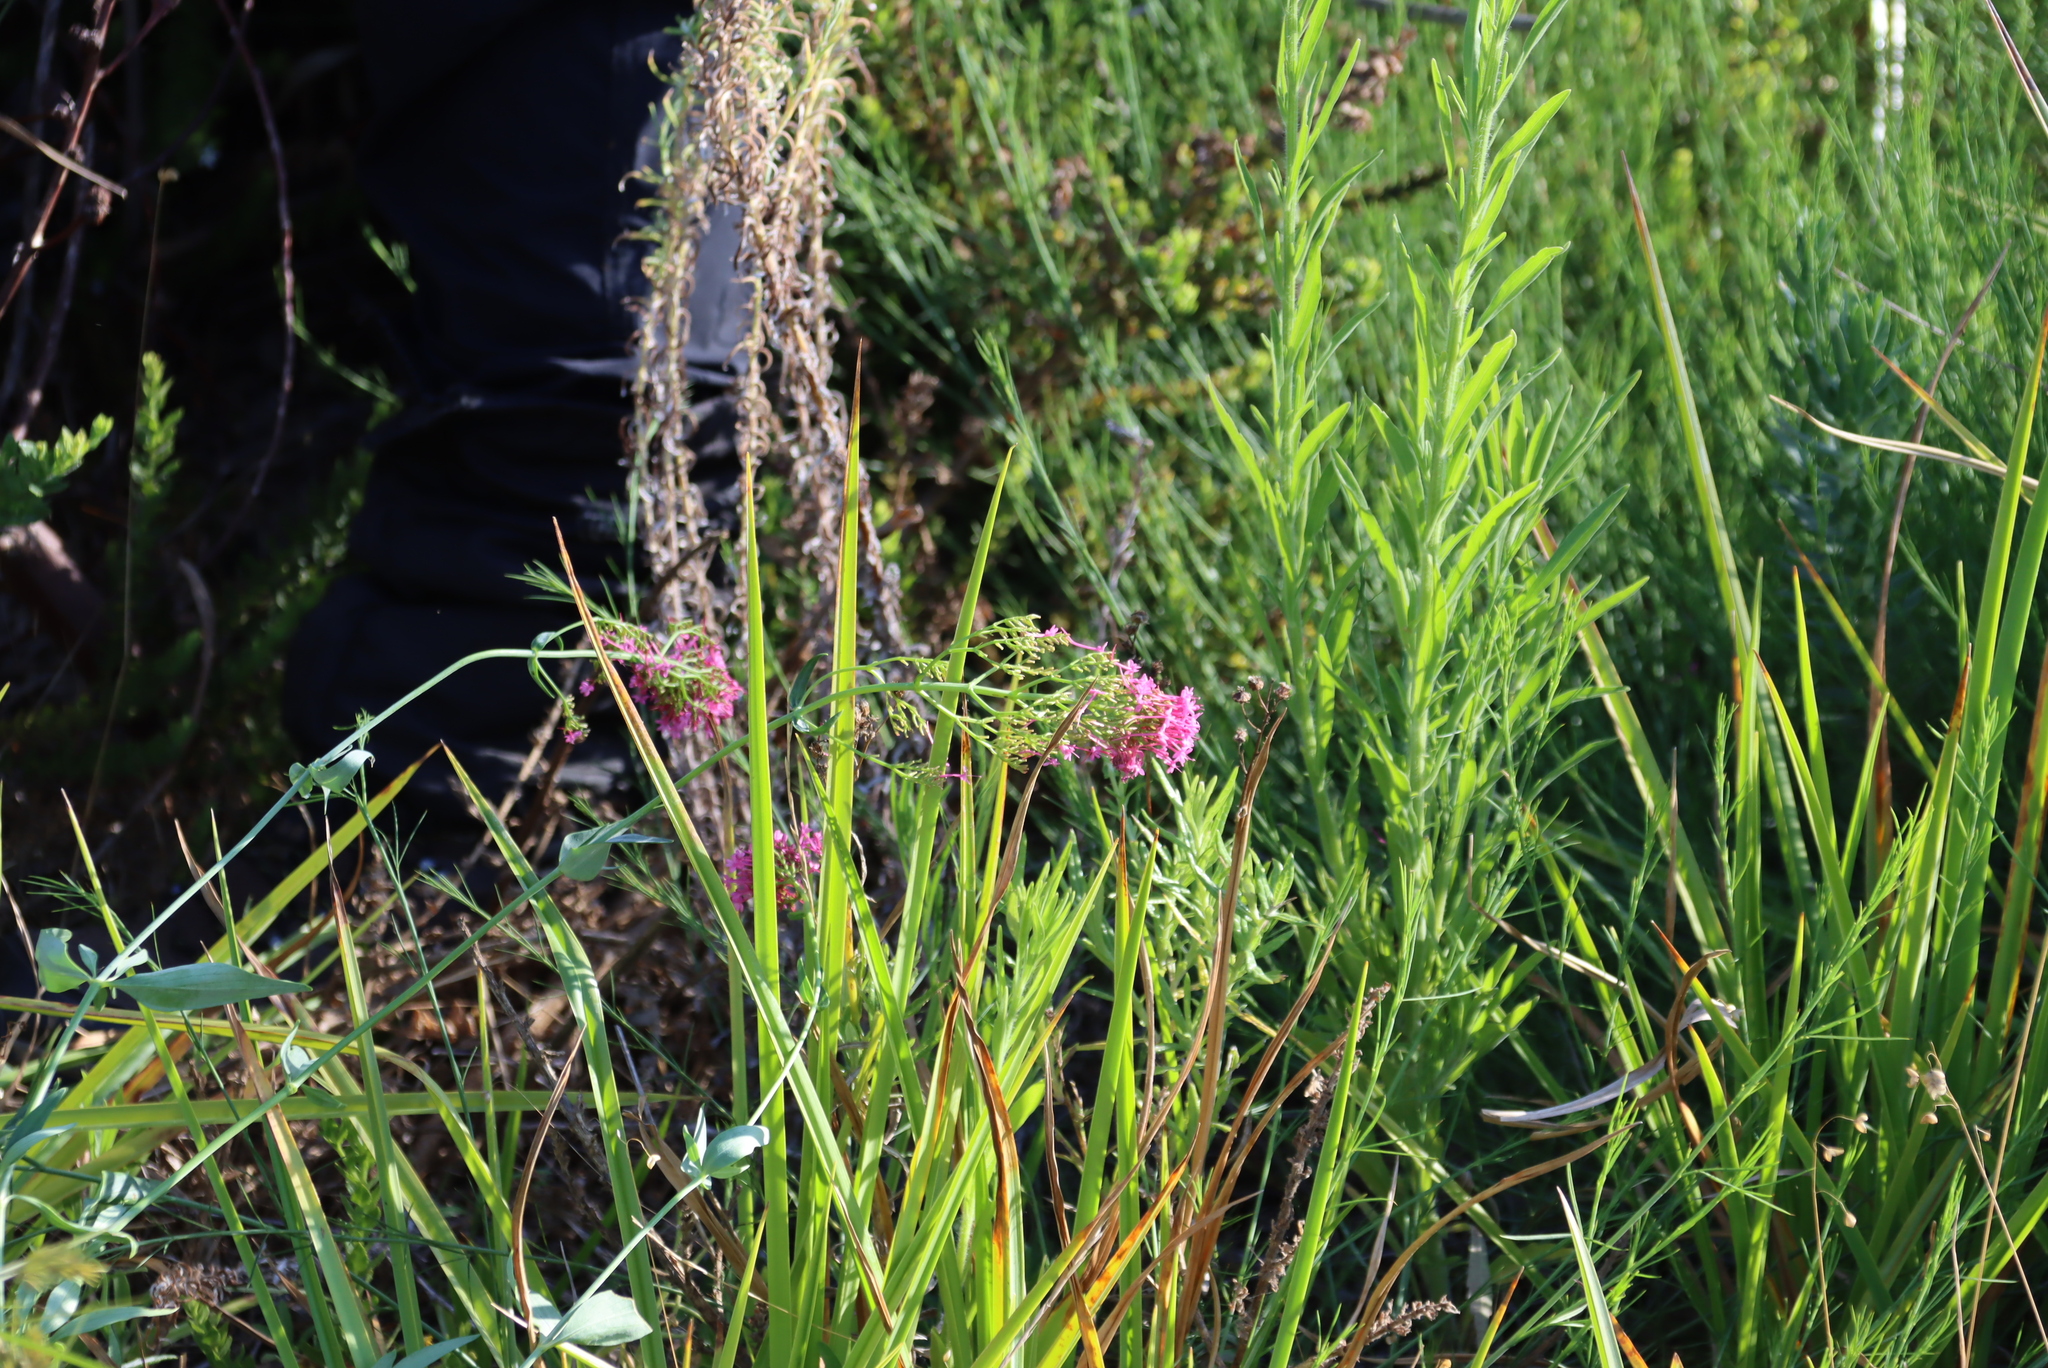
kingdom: Plantae
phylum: Tracheophyta
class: Magnoliopsida
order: Dipsacales
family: Caprifoliaceae
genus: Centranthus
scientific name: Centranthus ruber
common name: Red valerian
